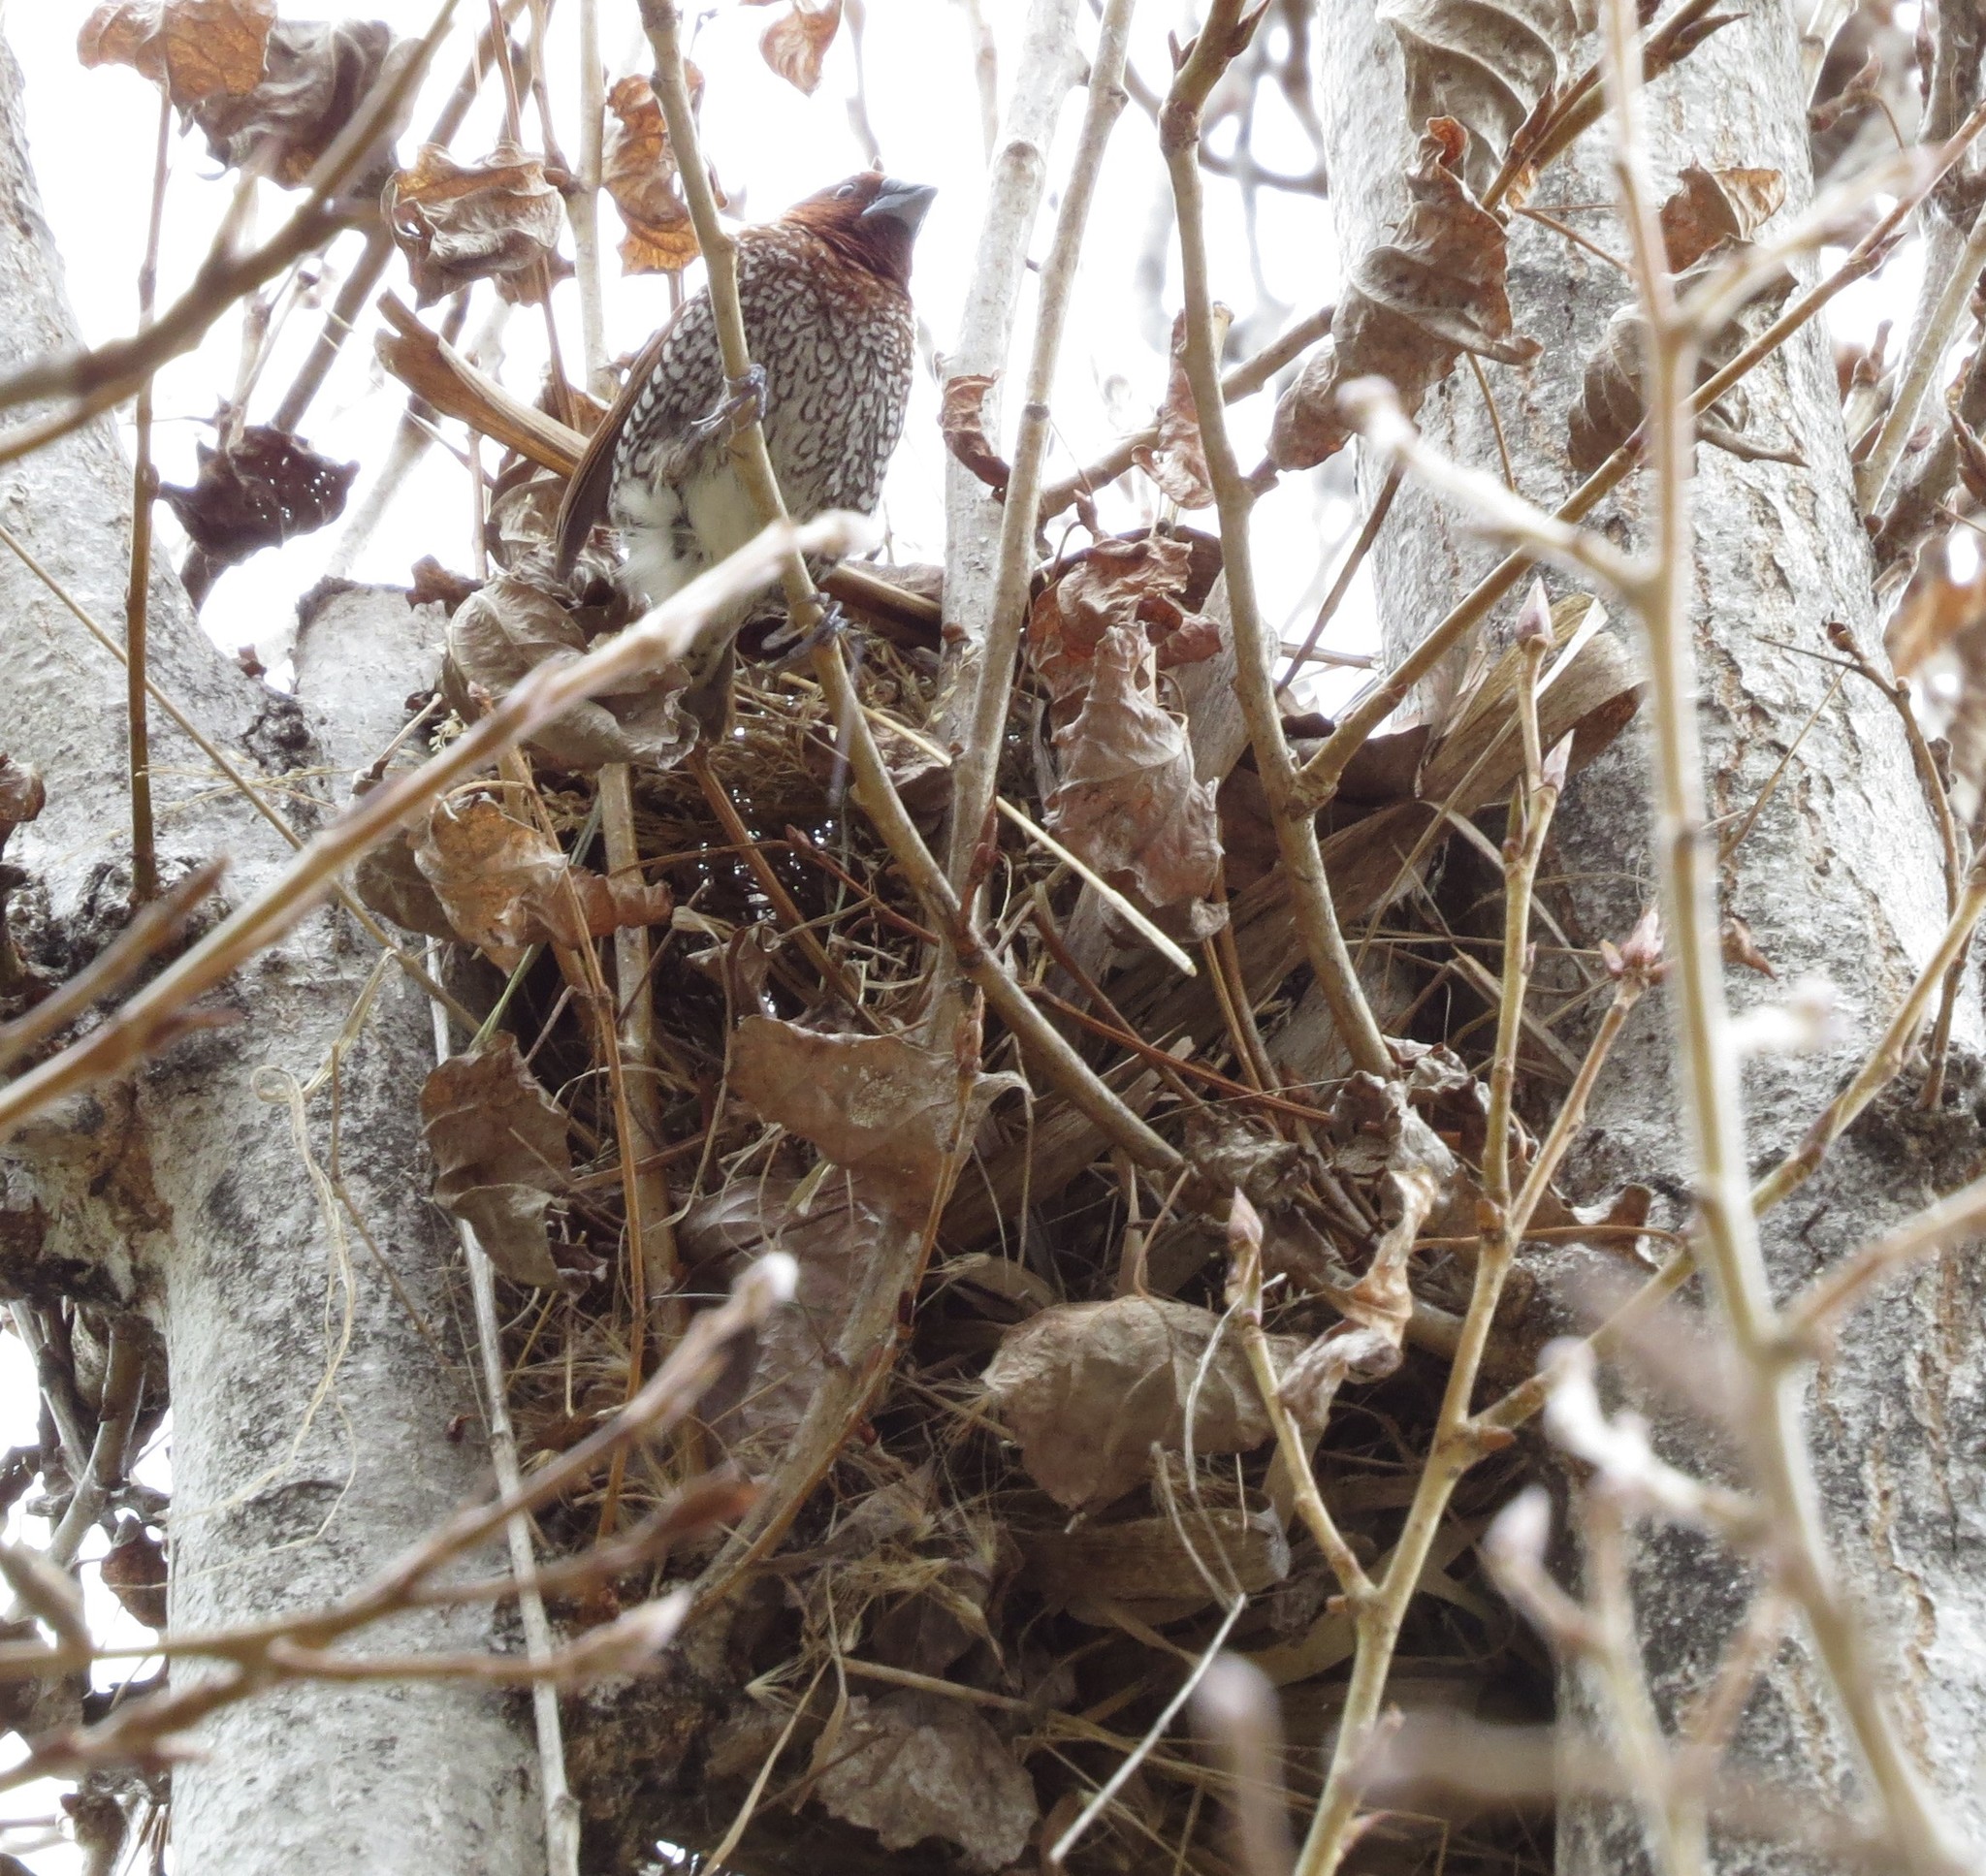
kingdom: Animalia
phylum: Chordata
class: Aves
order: Passeriformes
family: Estrildidae
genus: Lonchura
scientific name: Lonchura punctulata
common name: Scaly-breasted munia
